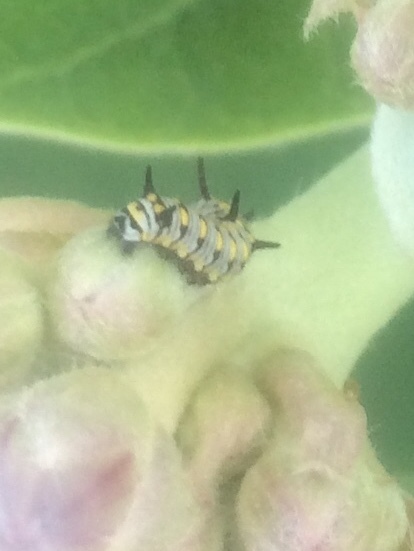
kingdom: Animalia
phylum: Arthropoda
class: Insecta
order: Lepidoptera
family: Nymphalidae
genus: Danaus
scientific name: Danaus chrysippus
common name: Plain tiger
